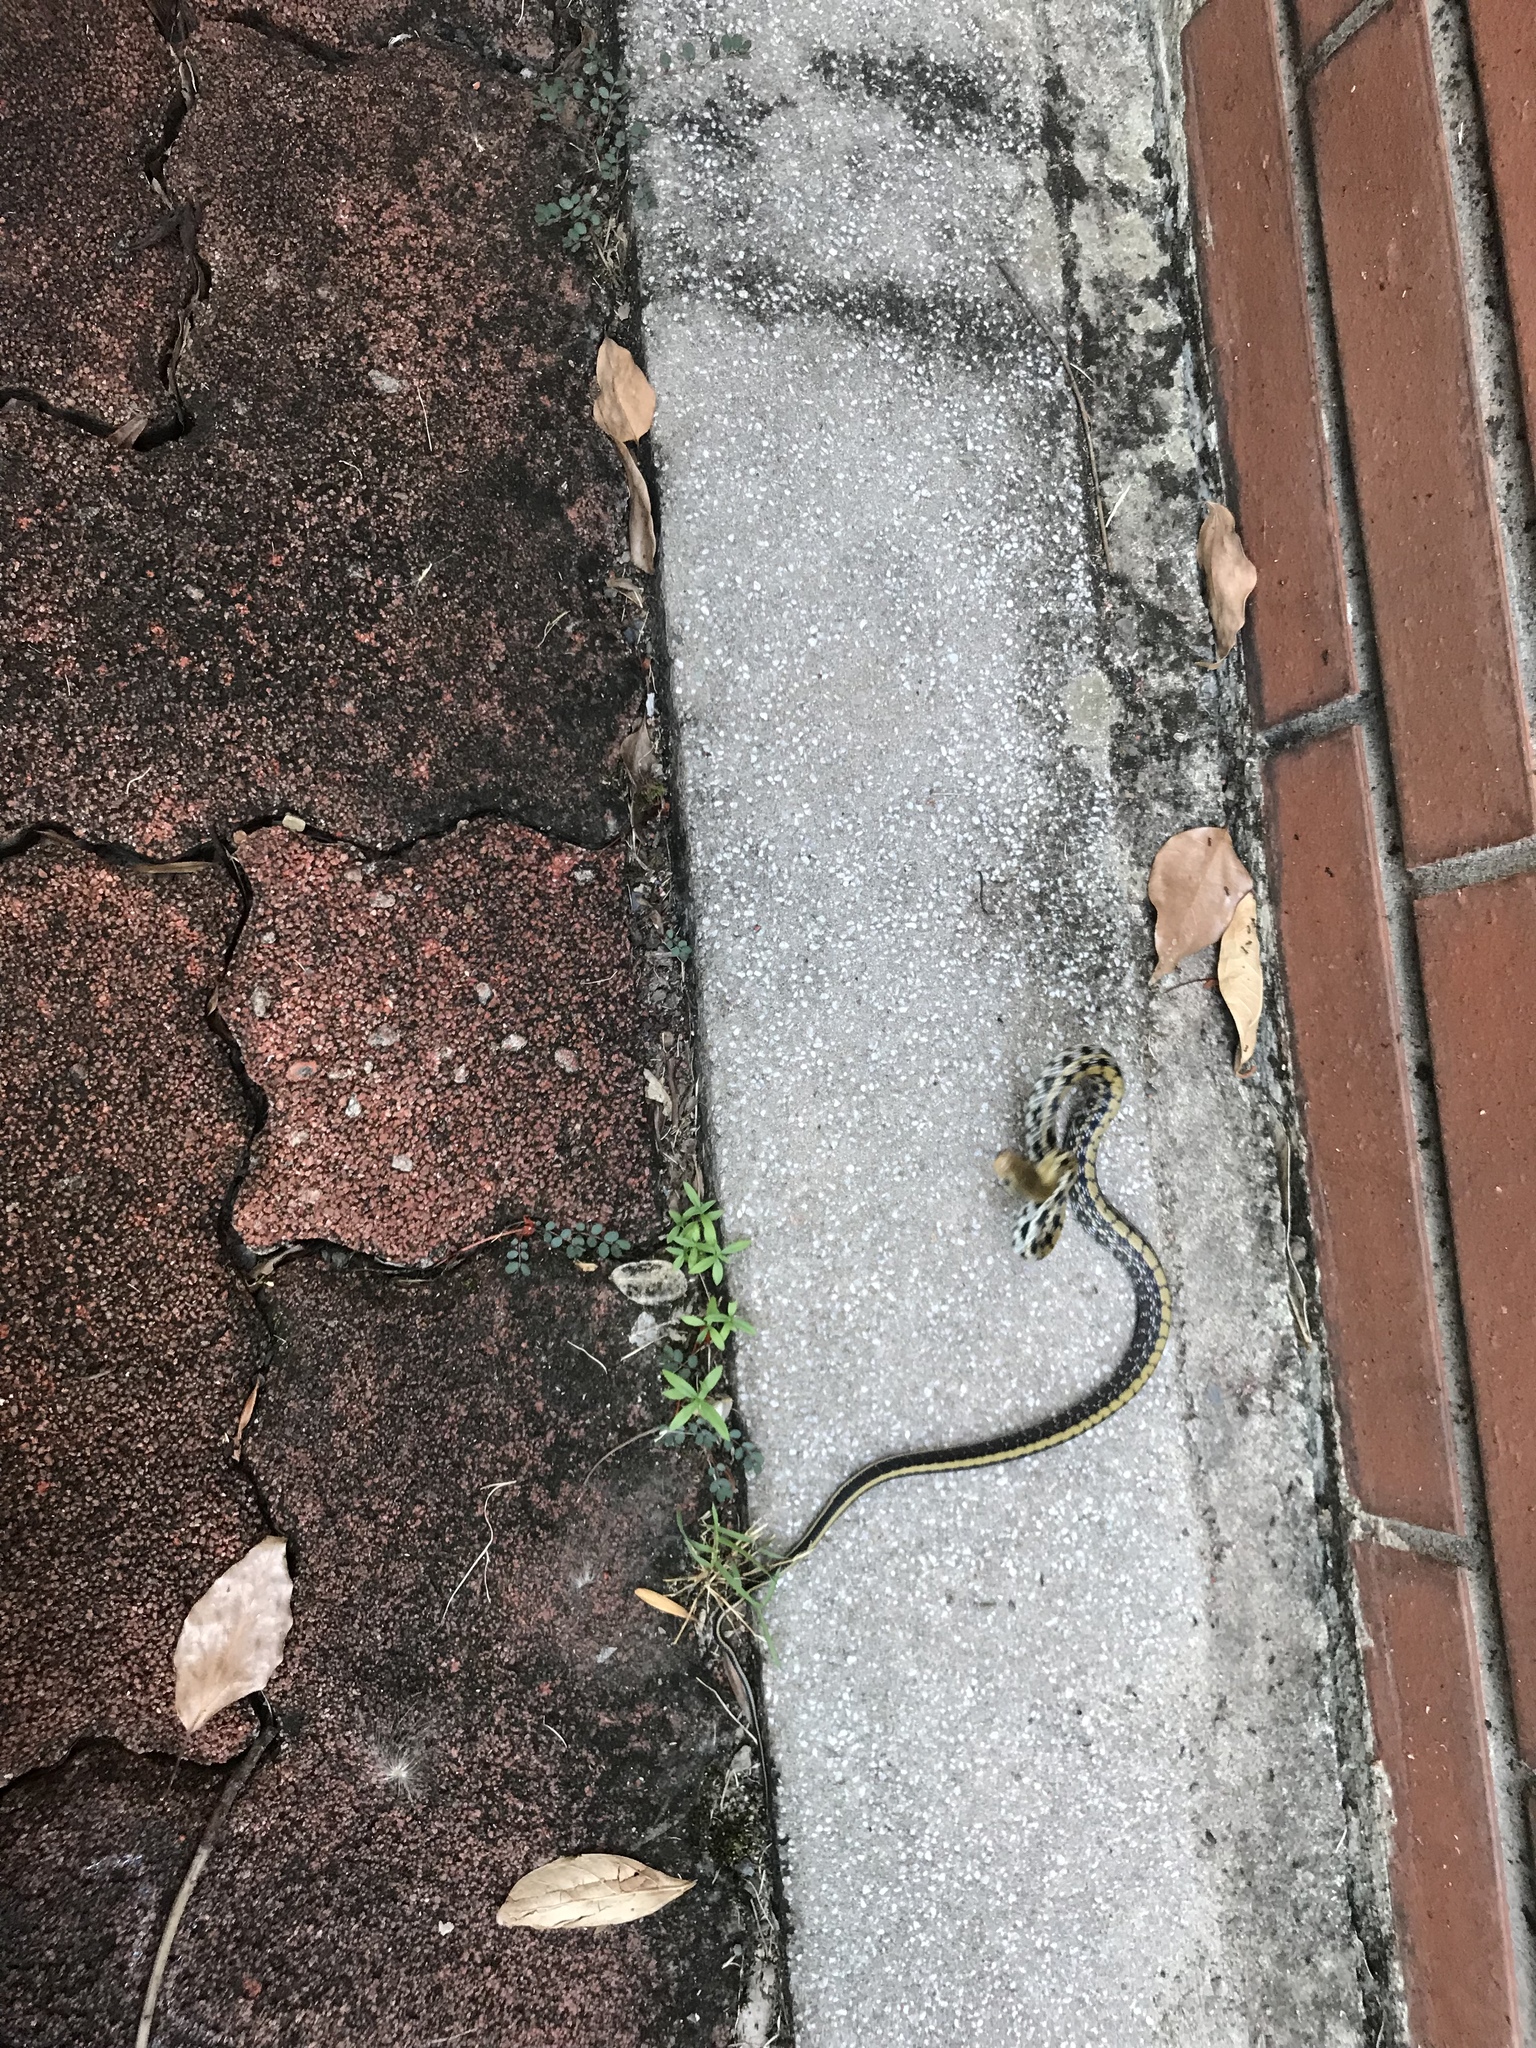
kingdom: Animalia
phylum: Chordata
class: Squamata
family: Colubridae
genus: Elaphe
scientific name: Elaphe taeniura
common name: Beauty snake
